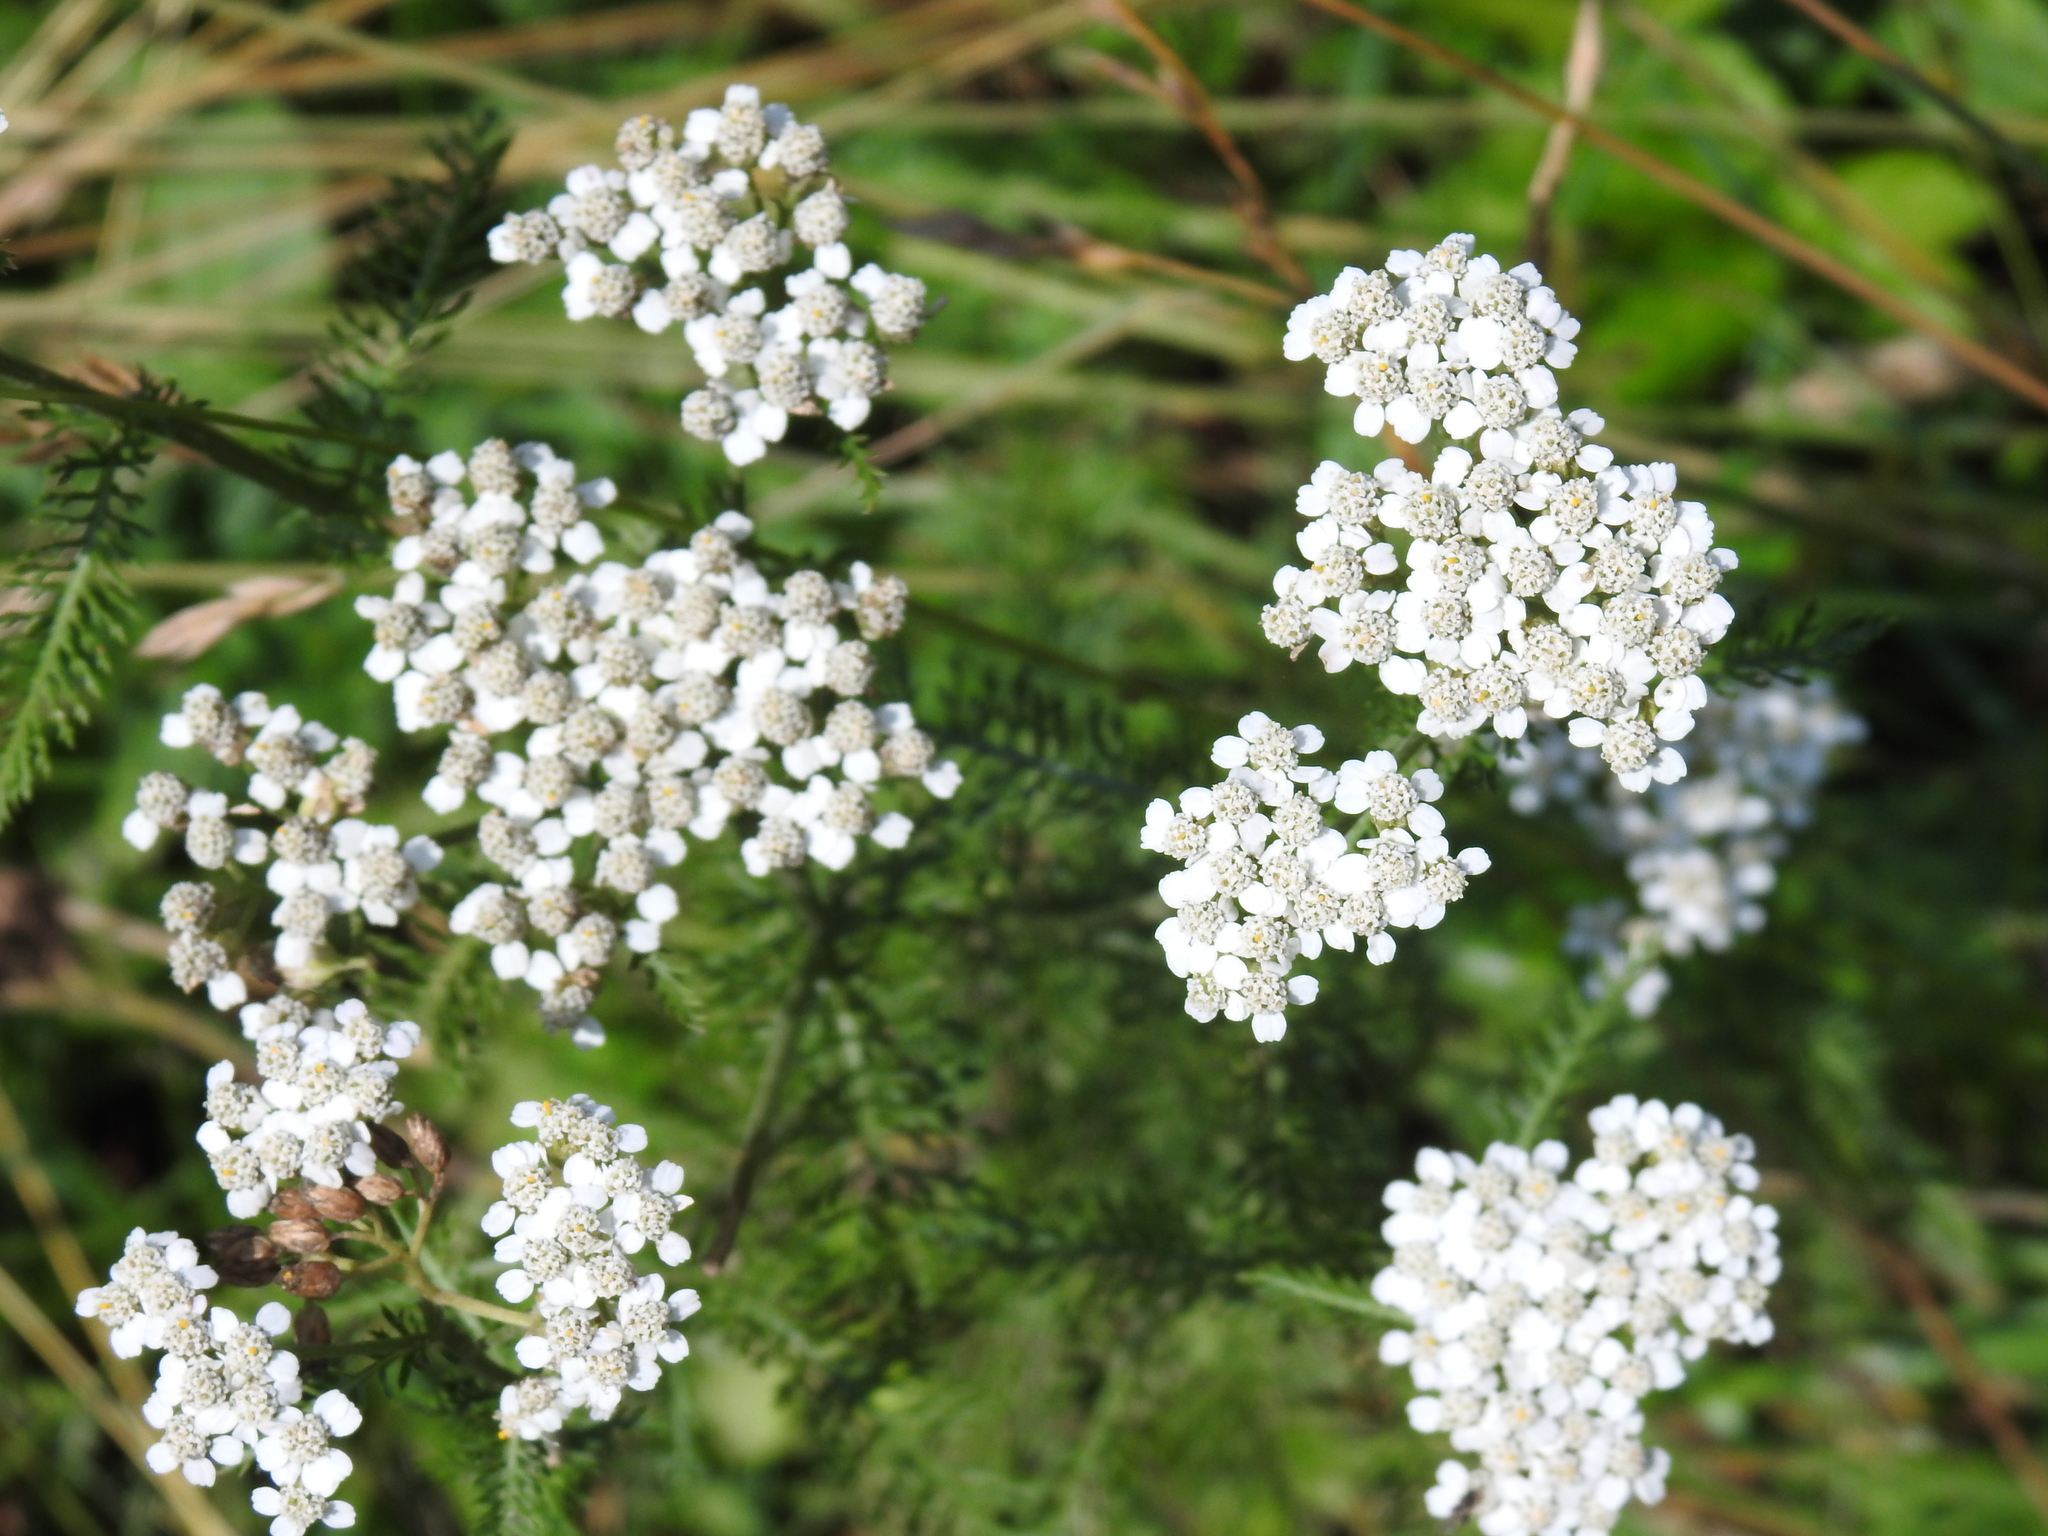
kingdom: Plantae
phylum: Tracheophyta
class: Magnoliopsida
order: Asterales
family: Asteraceae
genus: Achillea
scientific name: Achillea millefolium
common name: Yarrow
